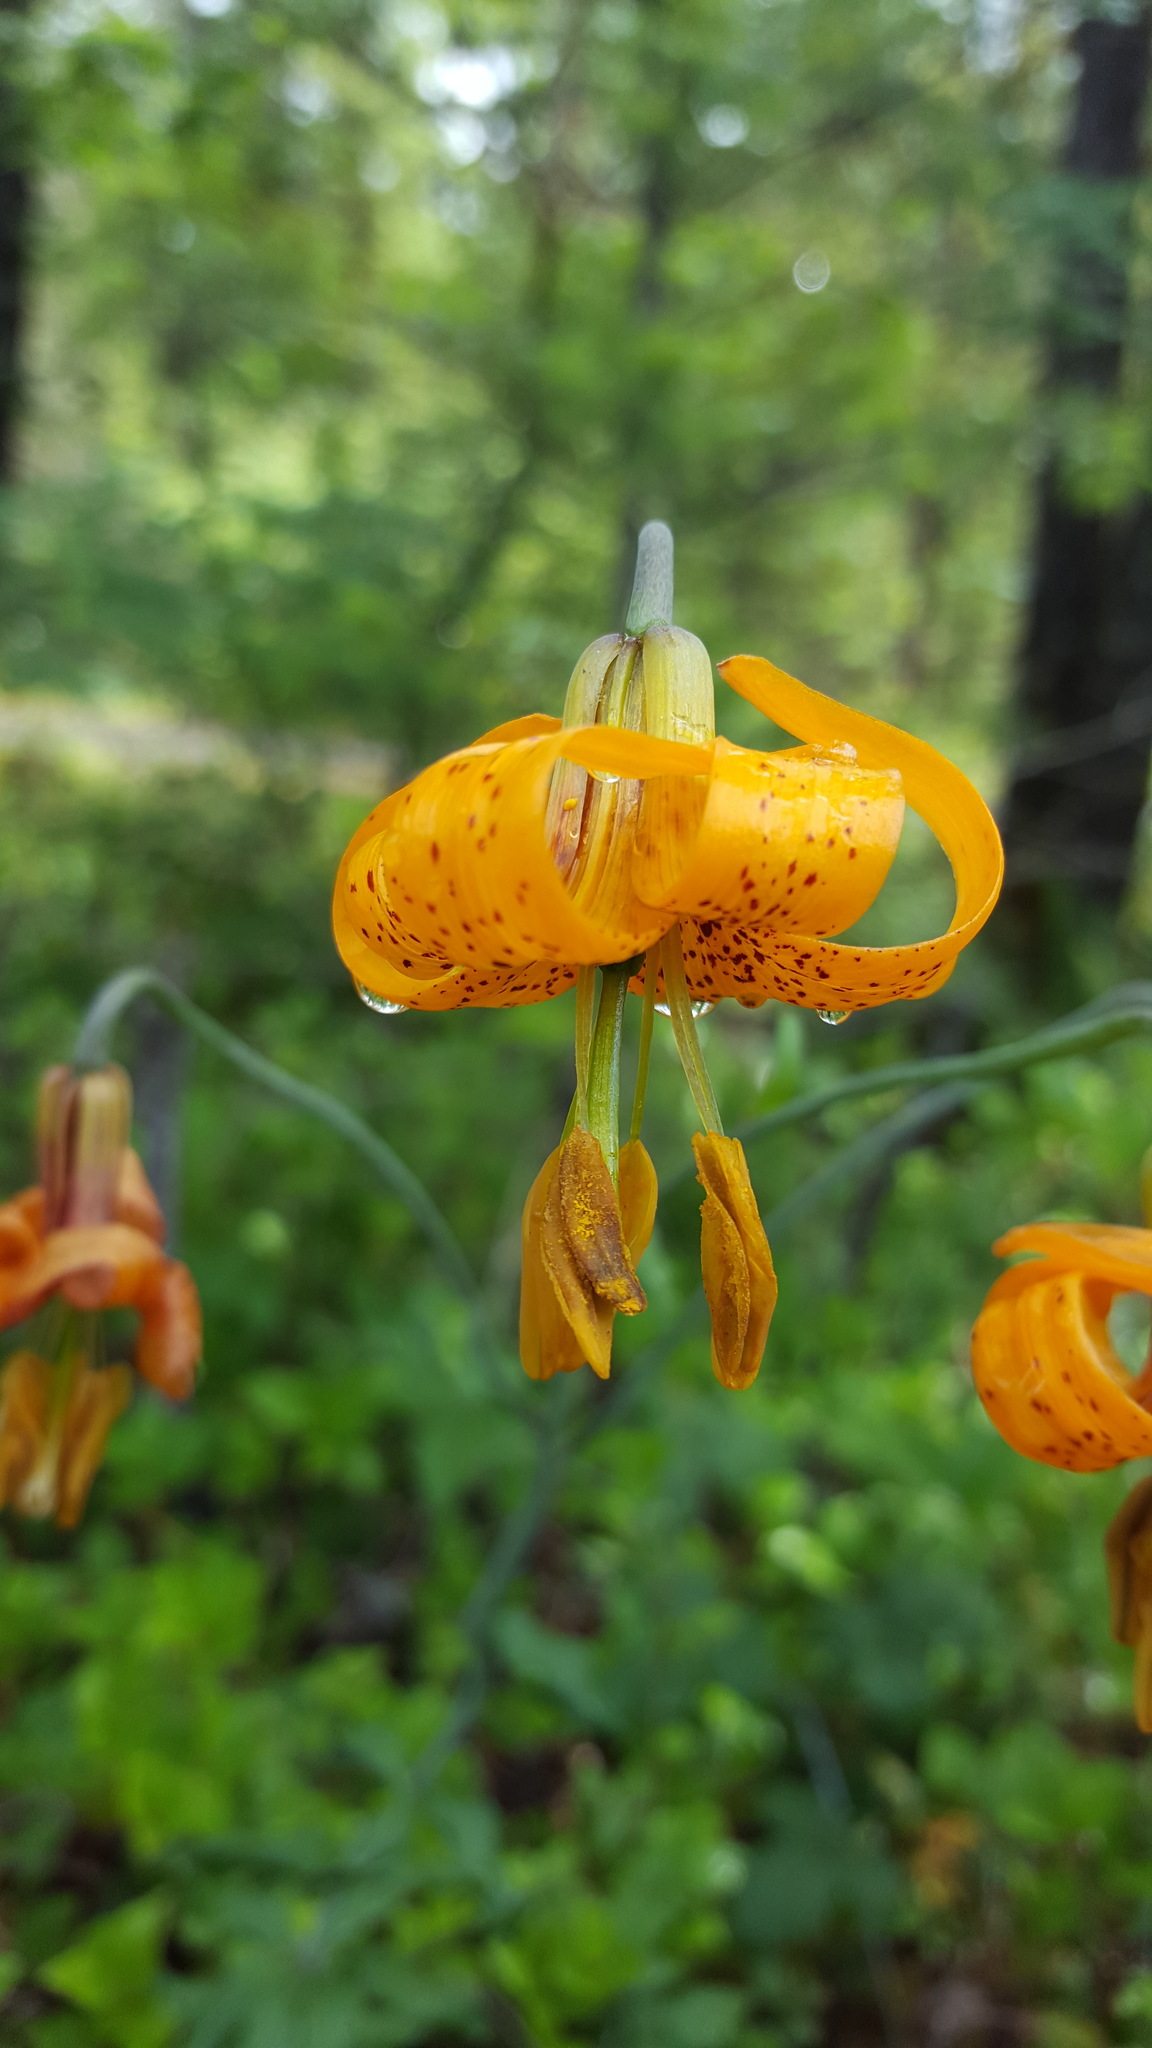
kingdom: Plantae
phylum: Tracheophyta
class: Liliopsida
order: Liliales
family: Liliaceae
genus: Lilium
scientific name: Lilium columbianum
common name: Columbia lily
